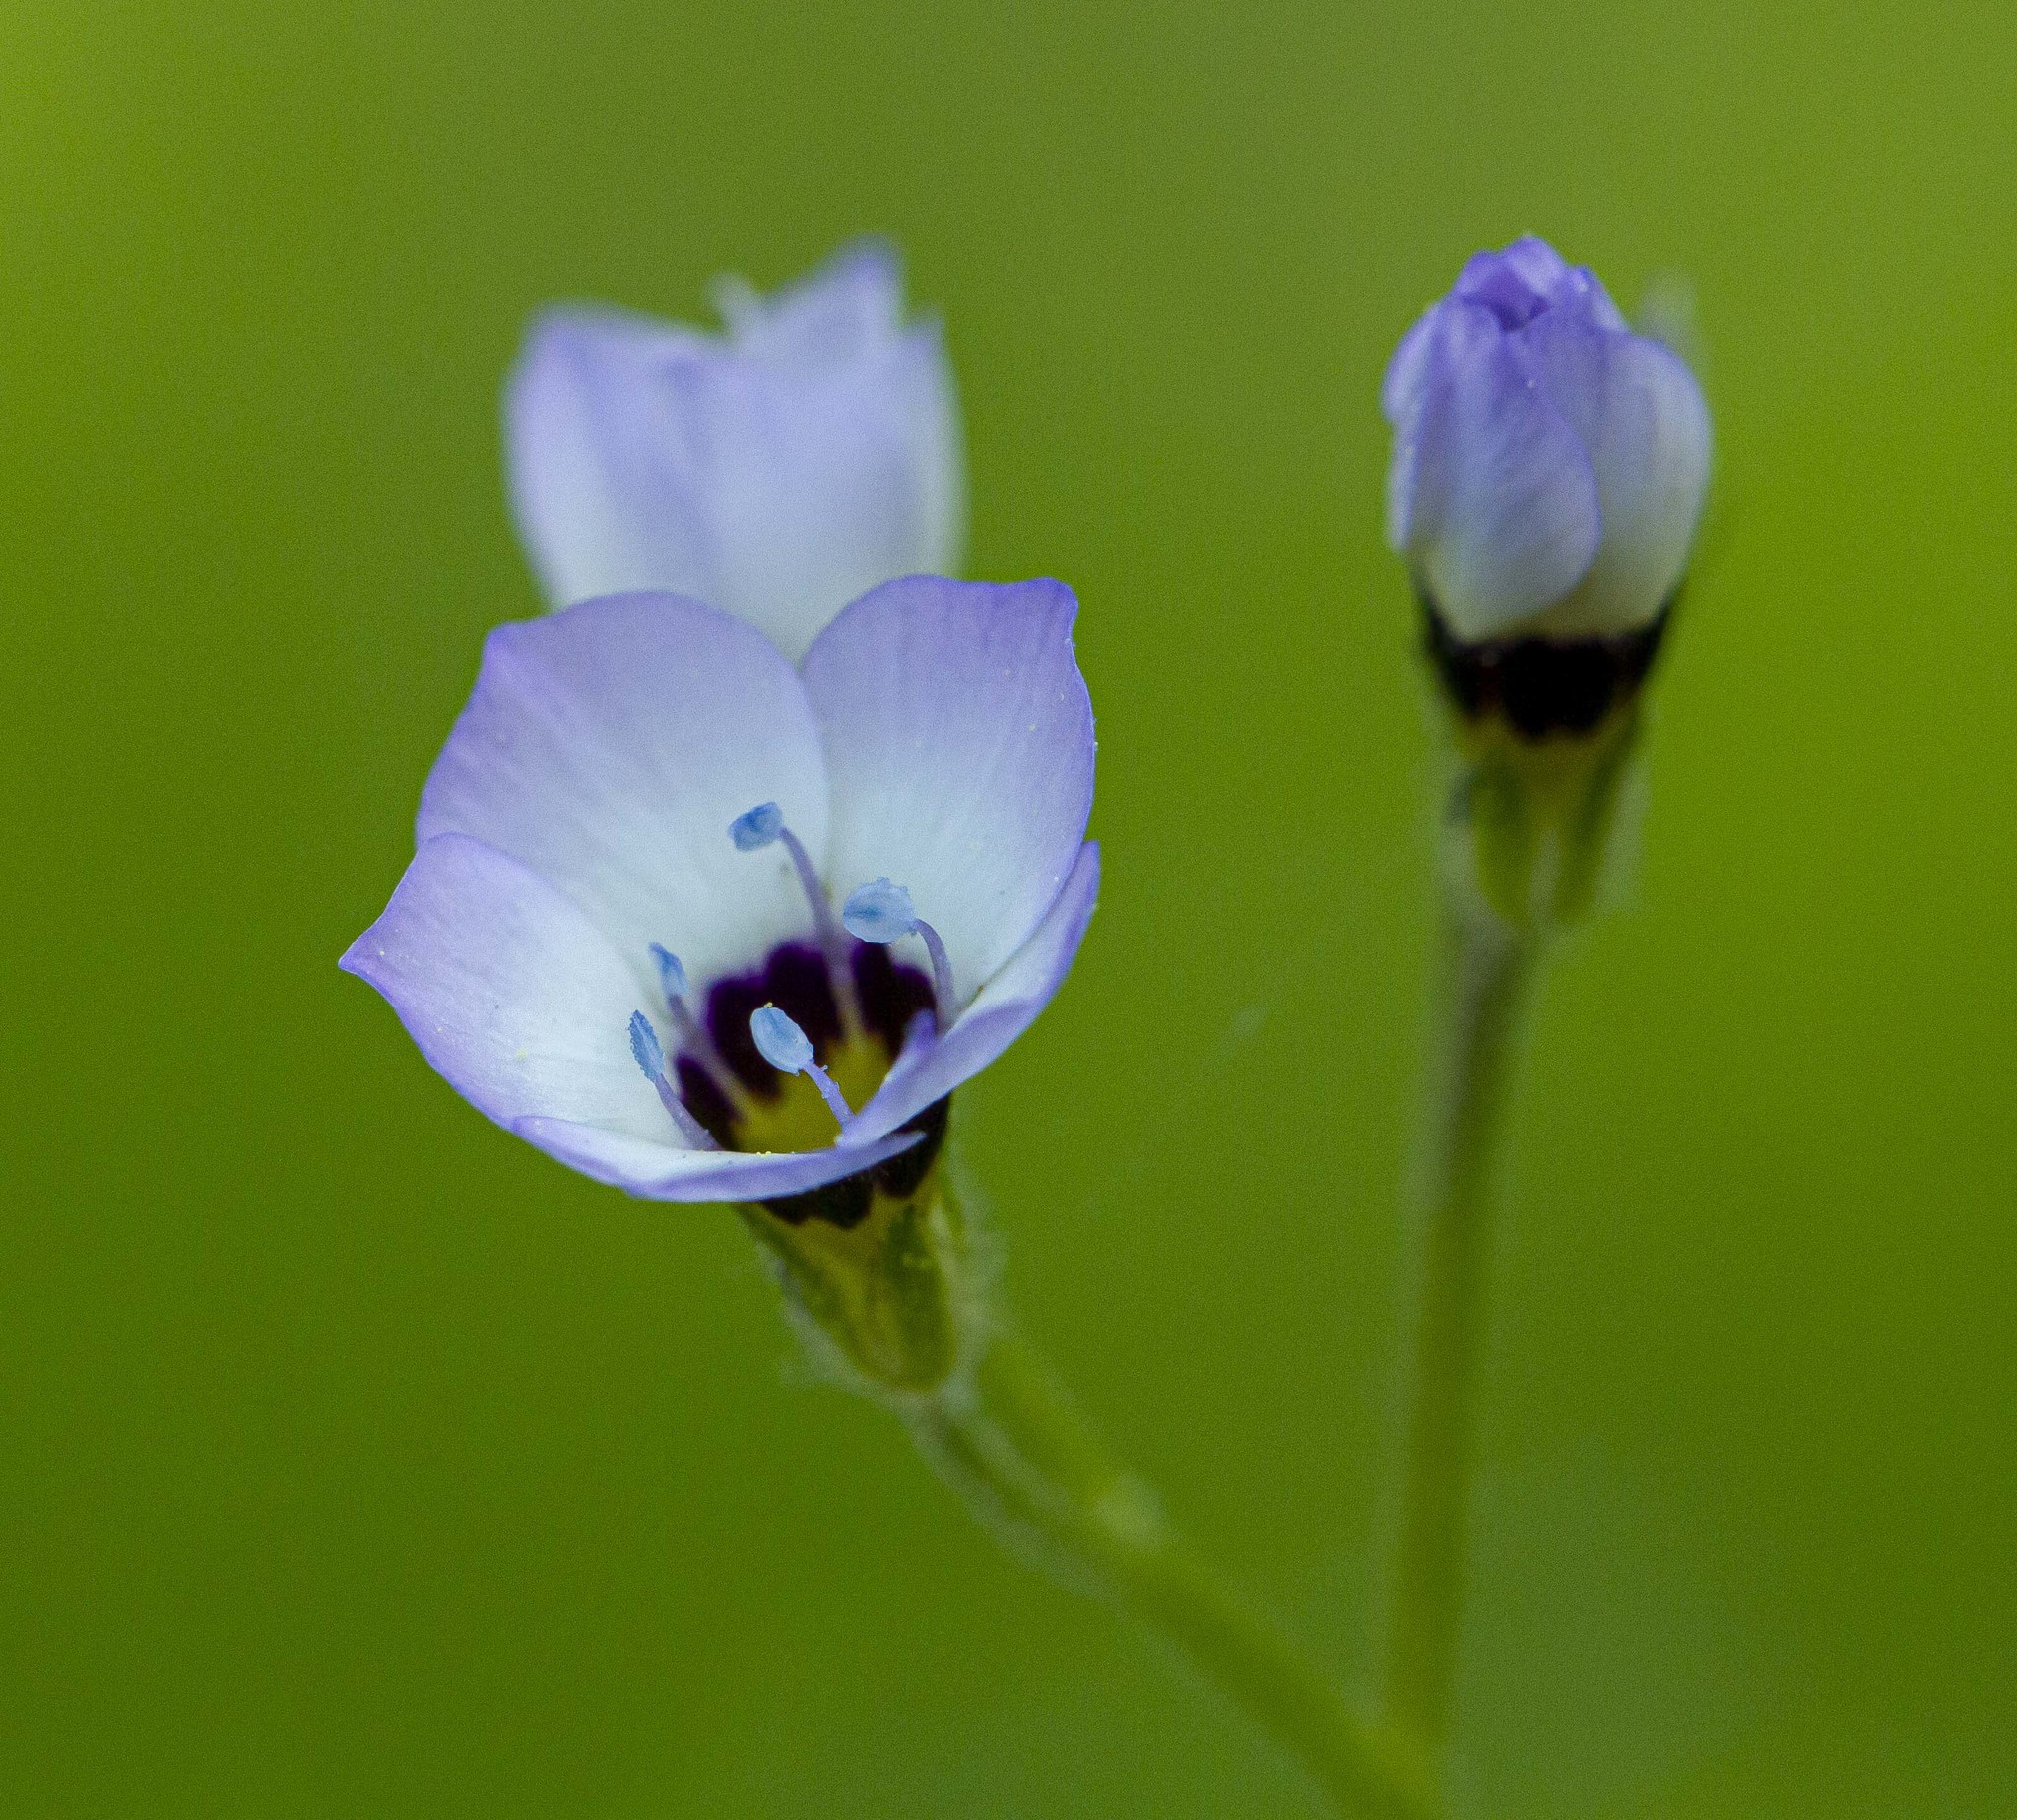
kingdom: Plantae
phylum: Tracheophyta
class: Magnoliopsida
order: Ericales
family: Polemoniaceae
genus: Gilia
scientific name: Gilia tricolor
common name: Bird's-eyes
